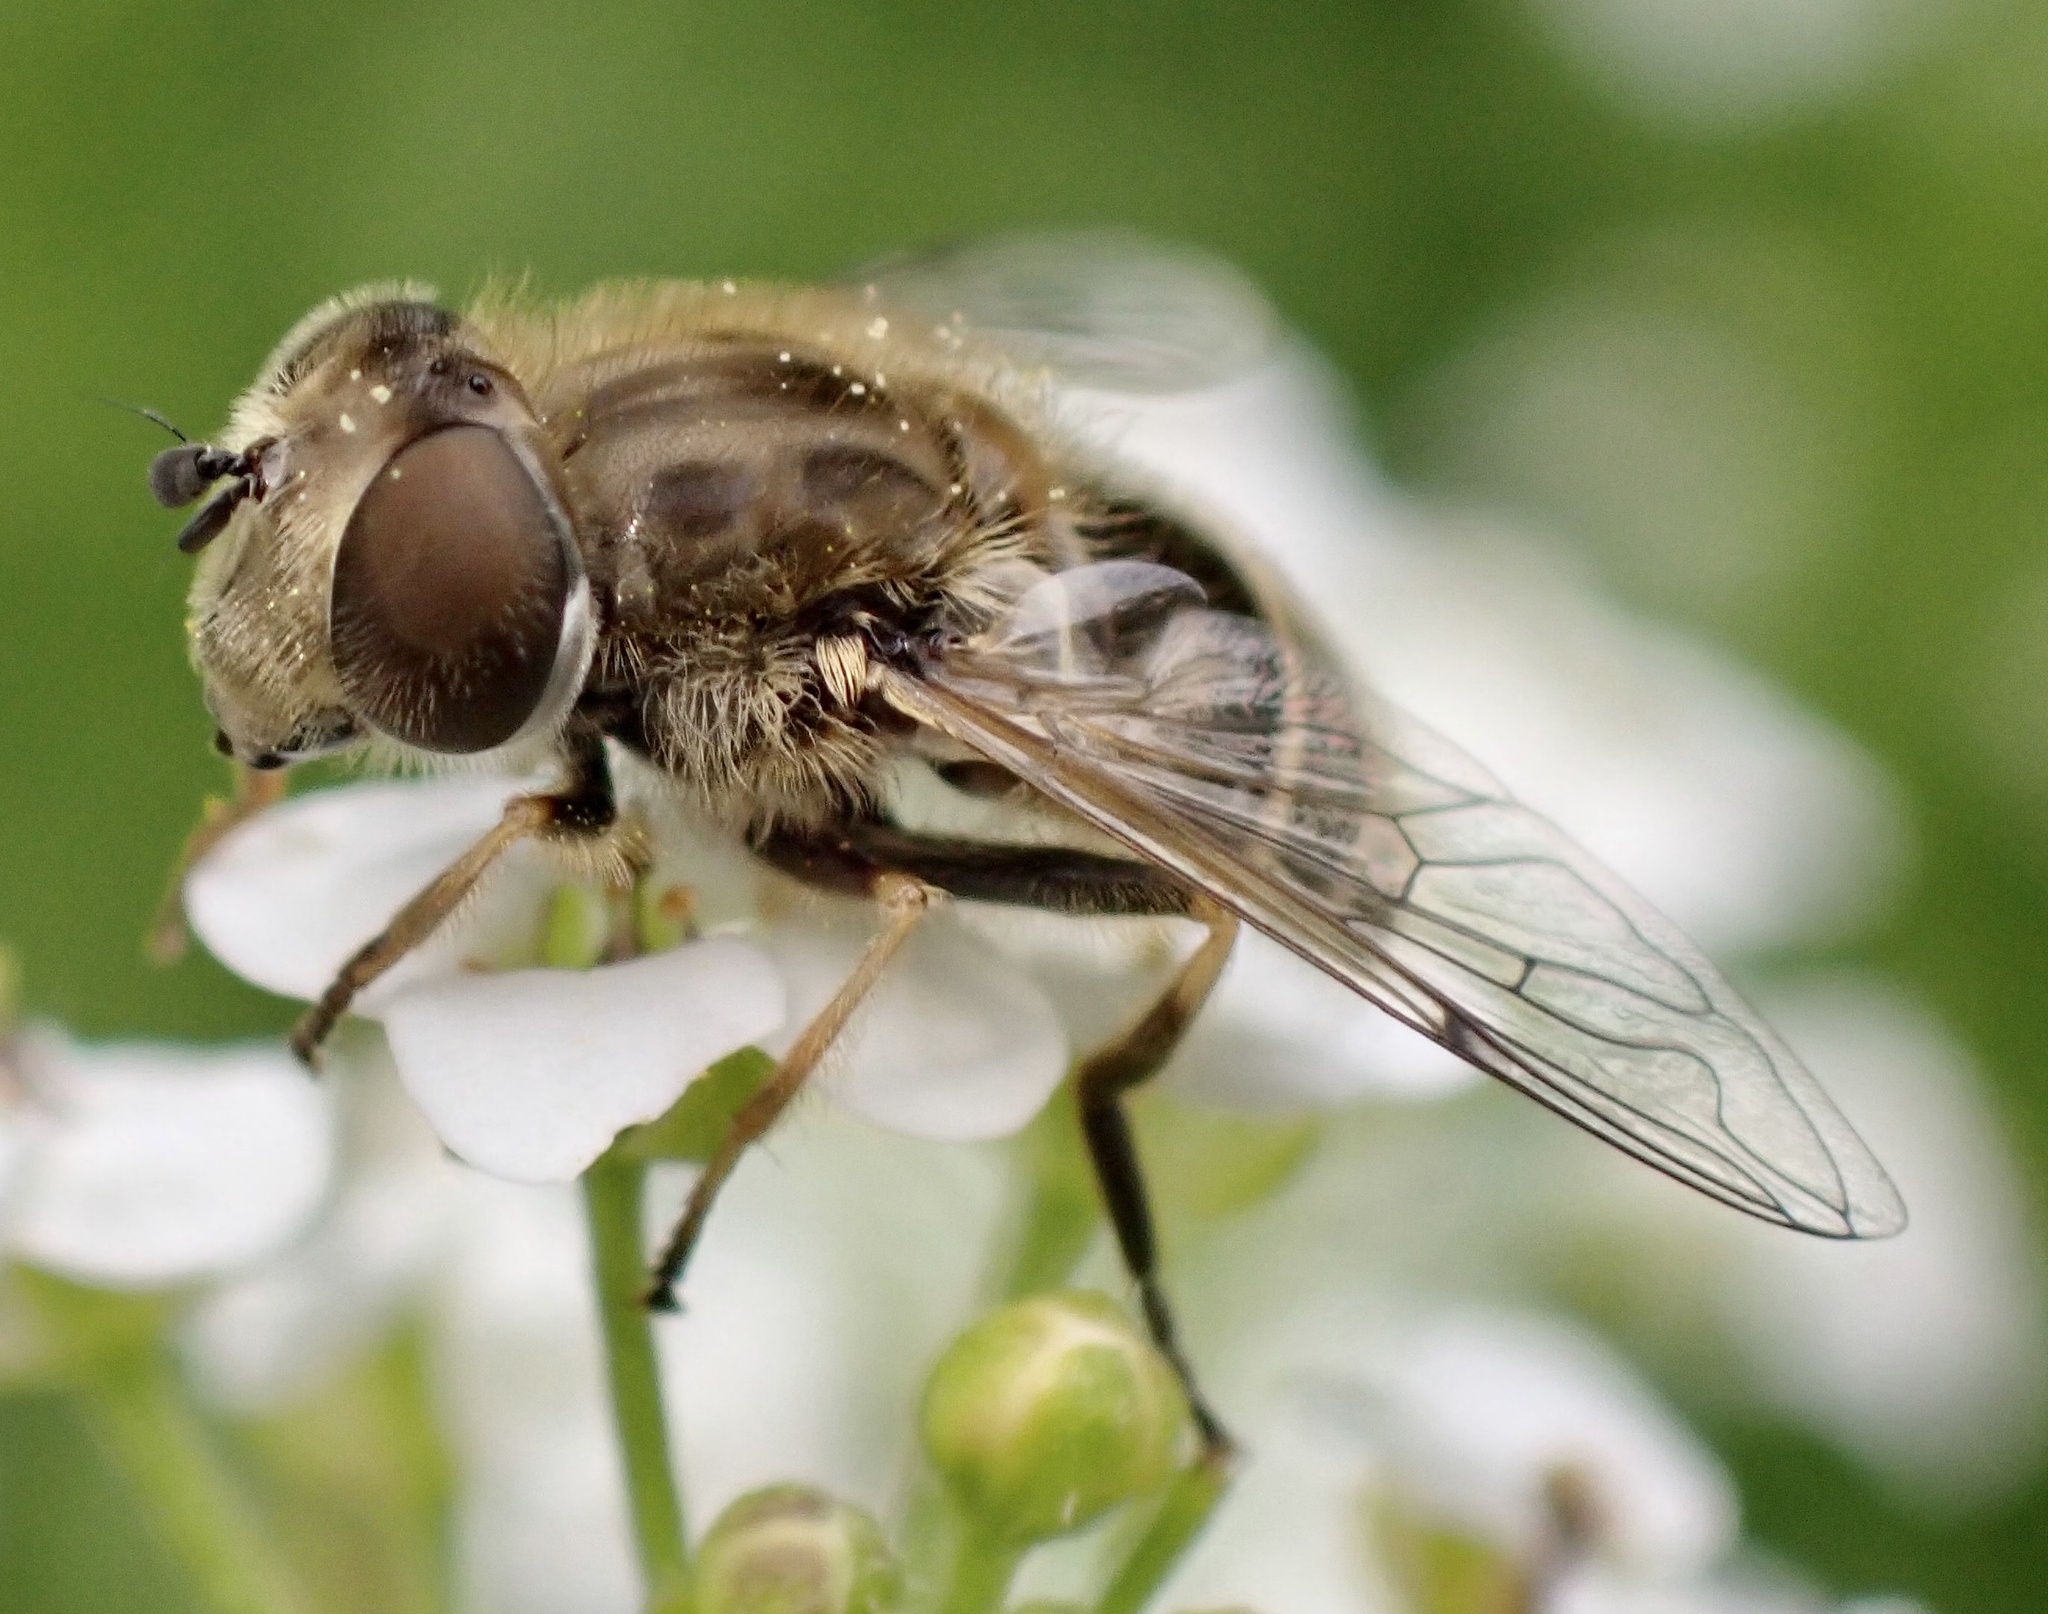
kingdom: Animalia
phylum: Arthropoda
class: Insecta
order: Diptera
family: Syrphidae
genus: Eristalis
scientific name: Eristalis abusivus
